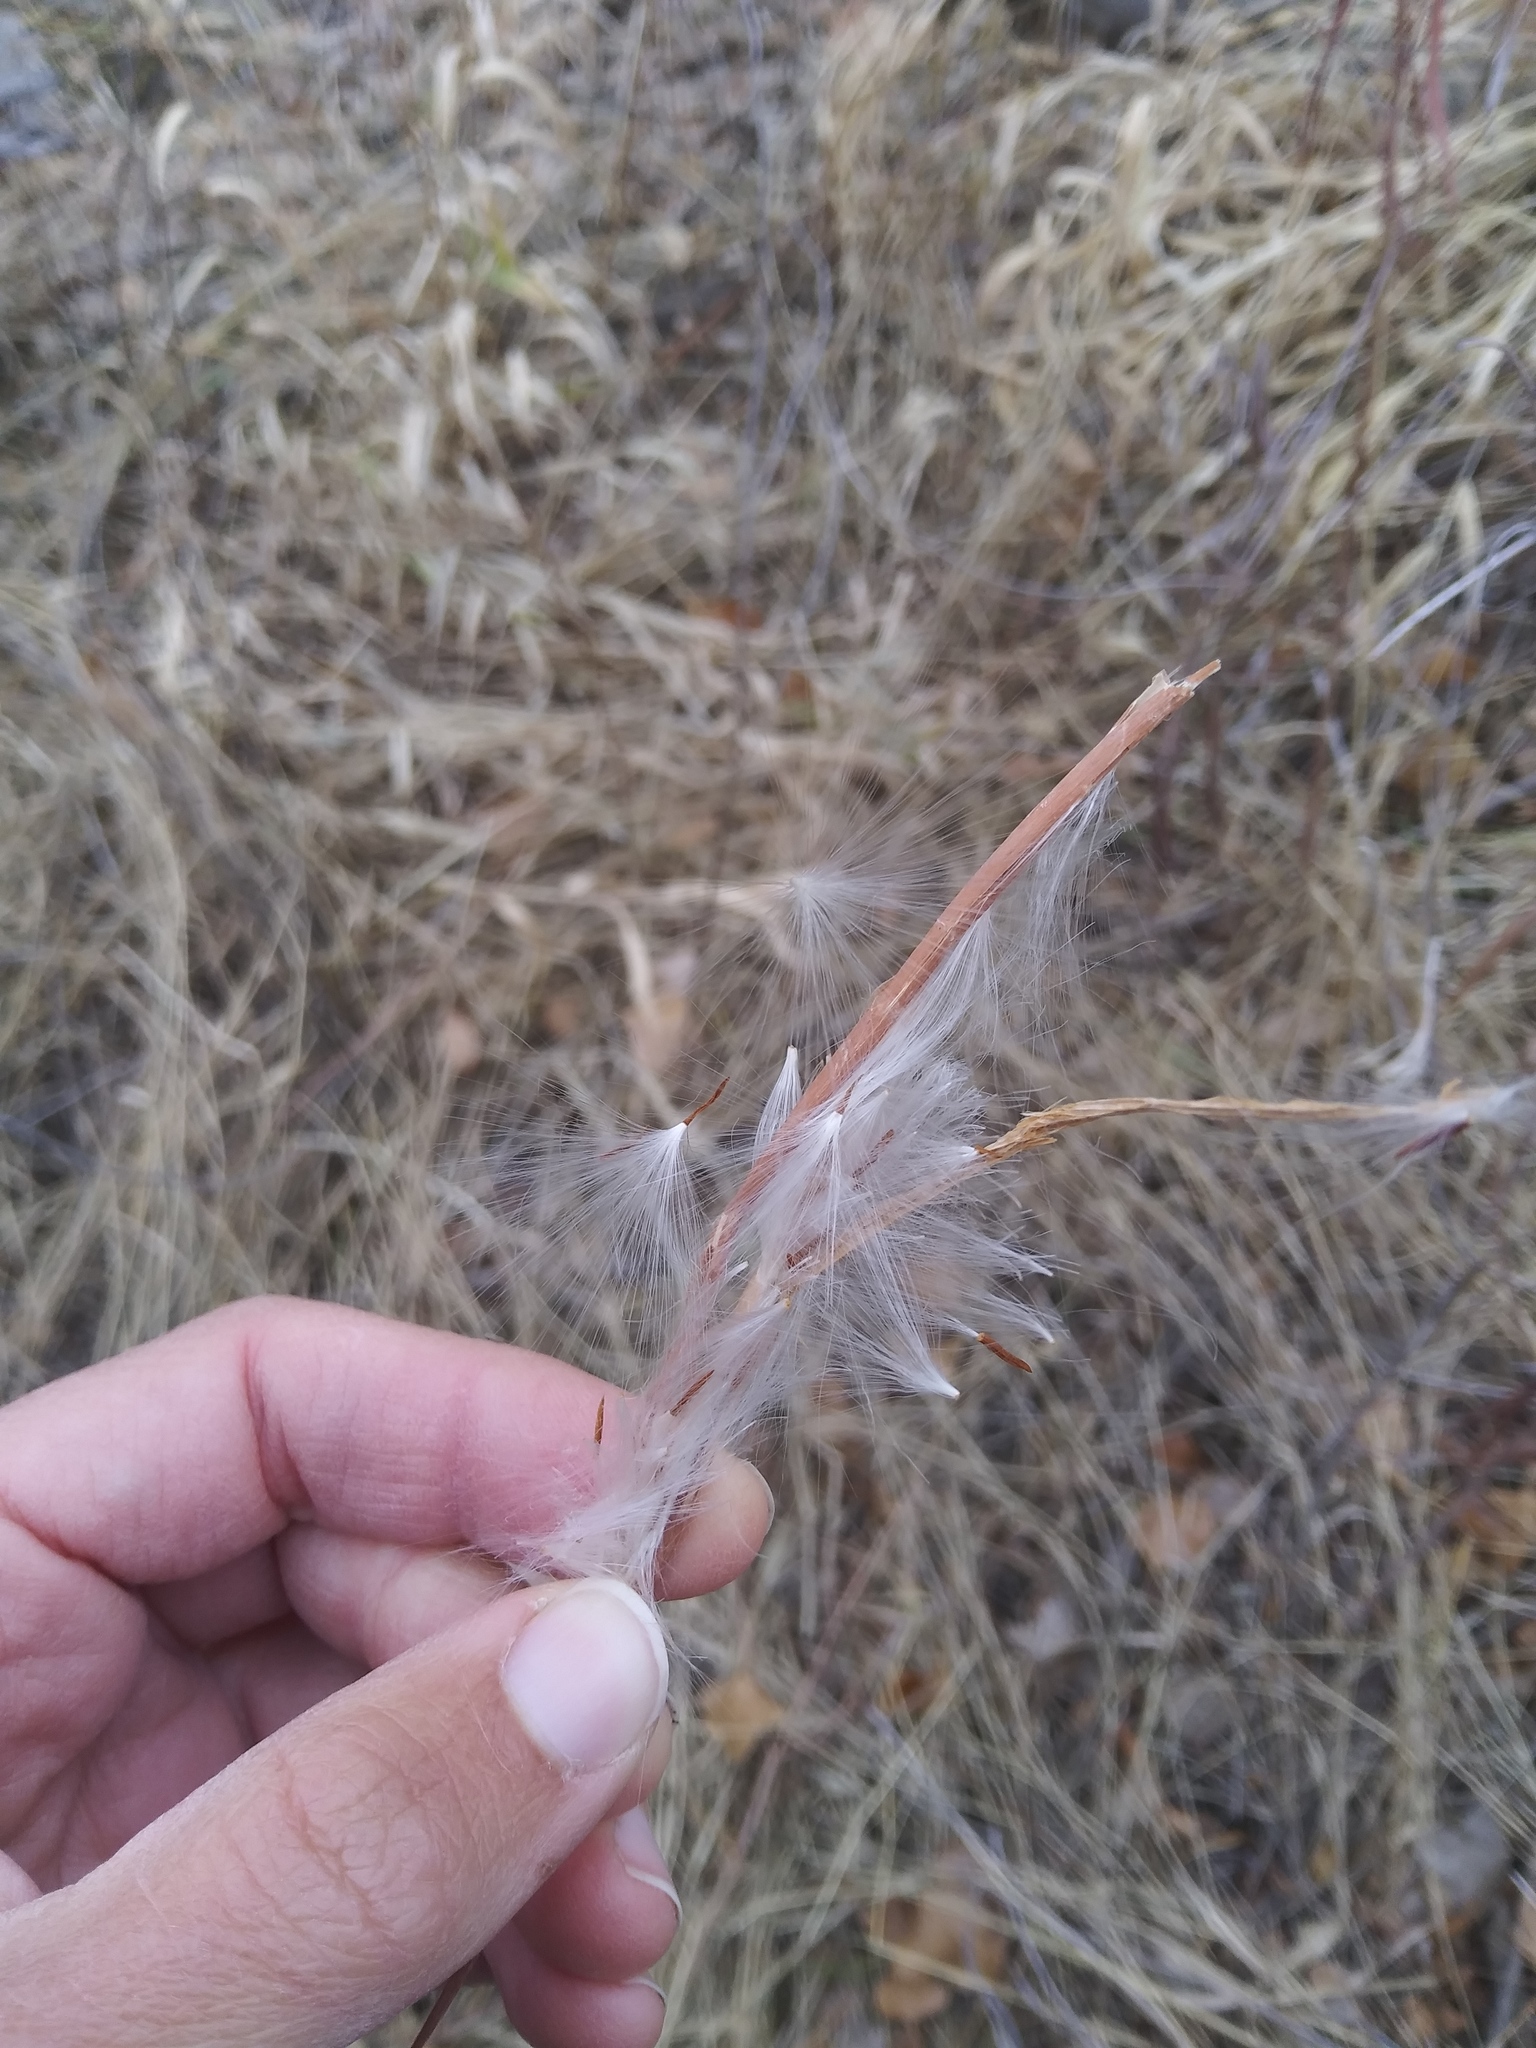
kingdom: Plantae
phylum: Tracheophyta
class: Magnoliopsida
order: Gentianales
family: Apocynaceae
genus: Apocynum
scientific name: Apocynum cannabinum
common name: Hemp dogbane
